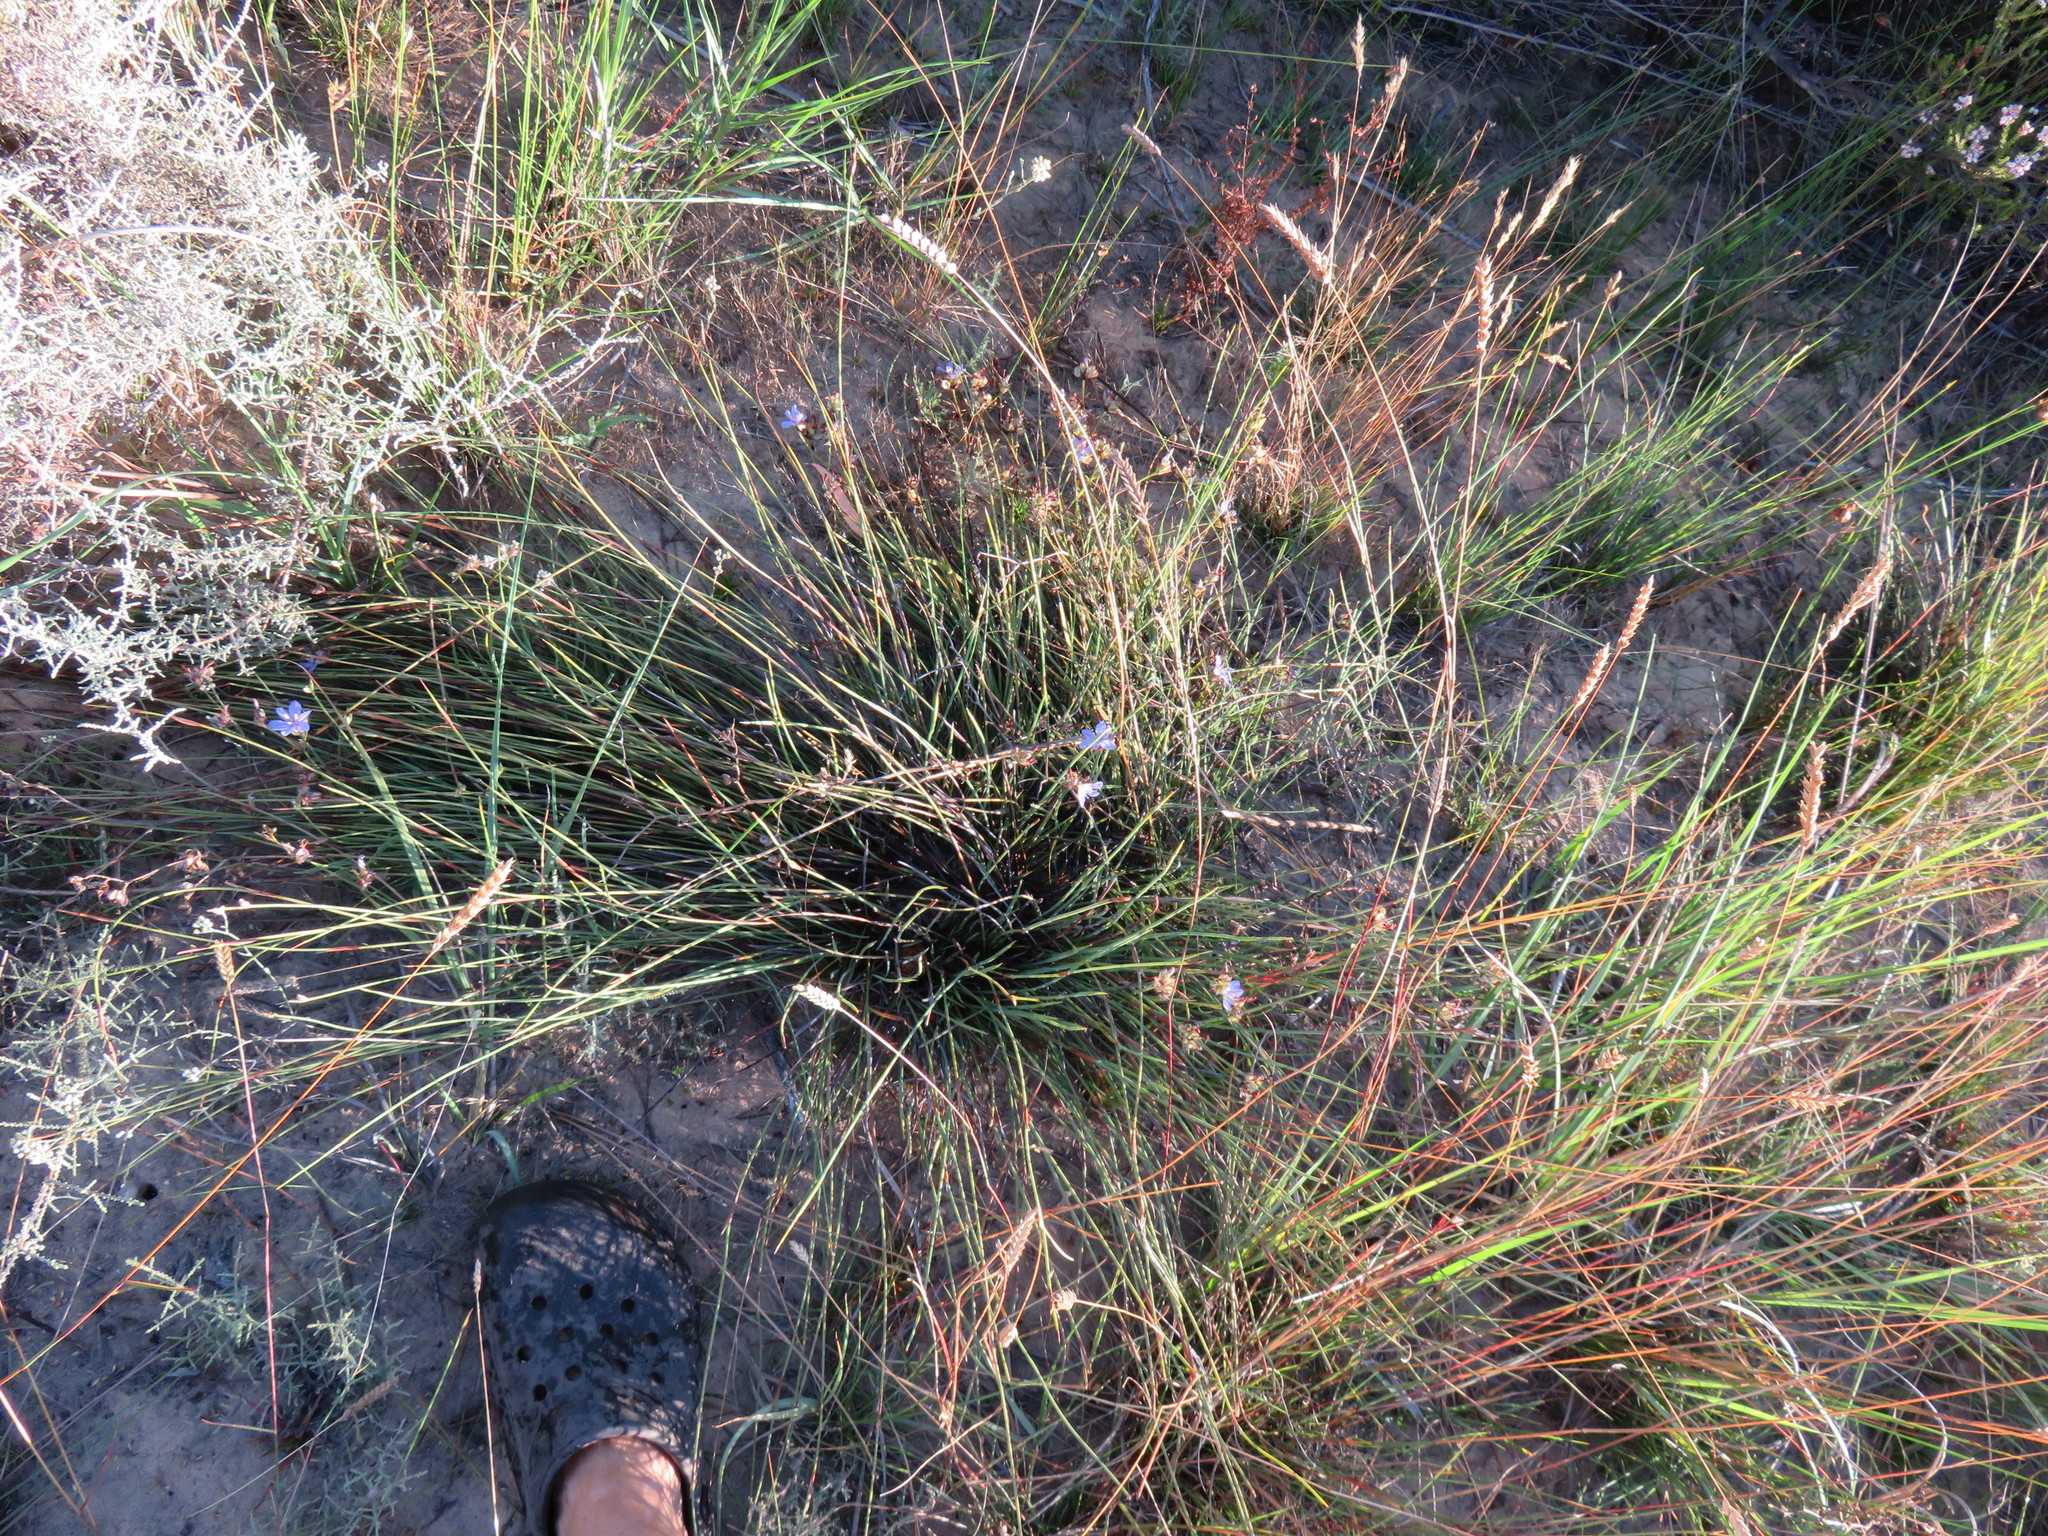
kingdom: Plantae
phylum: Tracheophyta
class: Liliopsida
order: Asparagales
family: Iridaceae
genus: Aristea
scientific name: Aristea dichotoma
